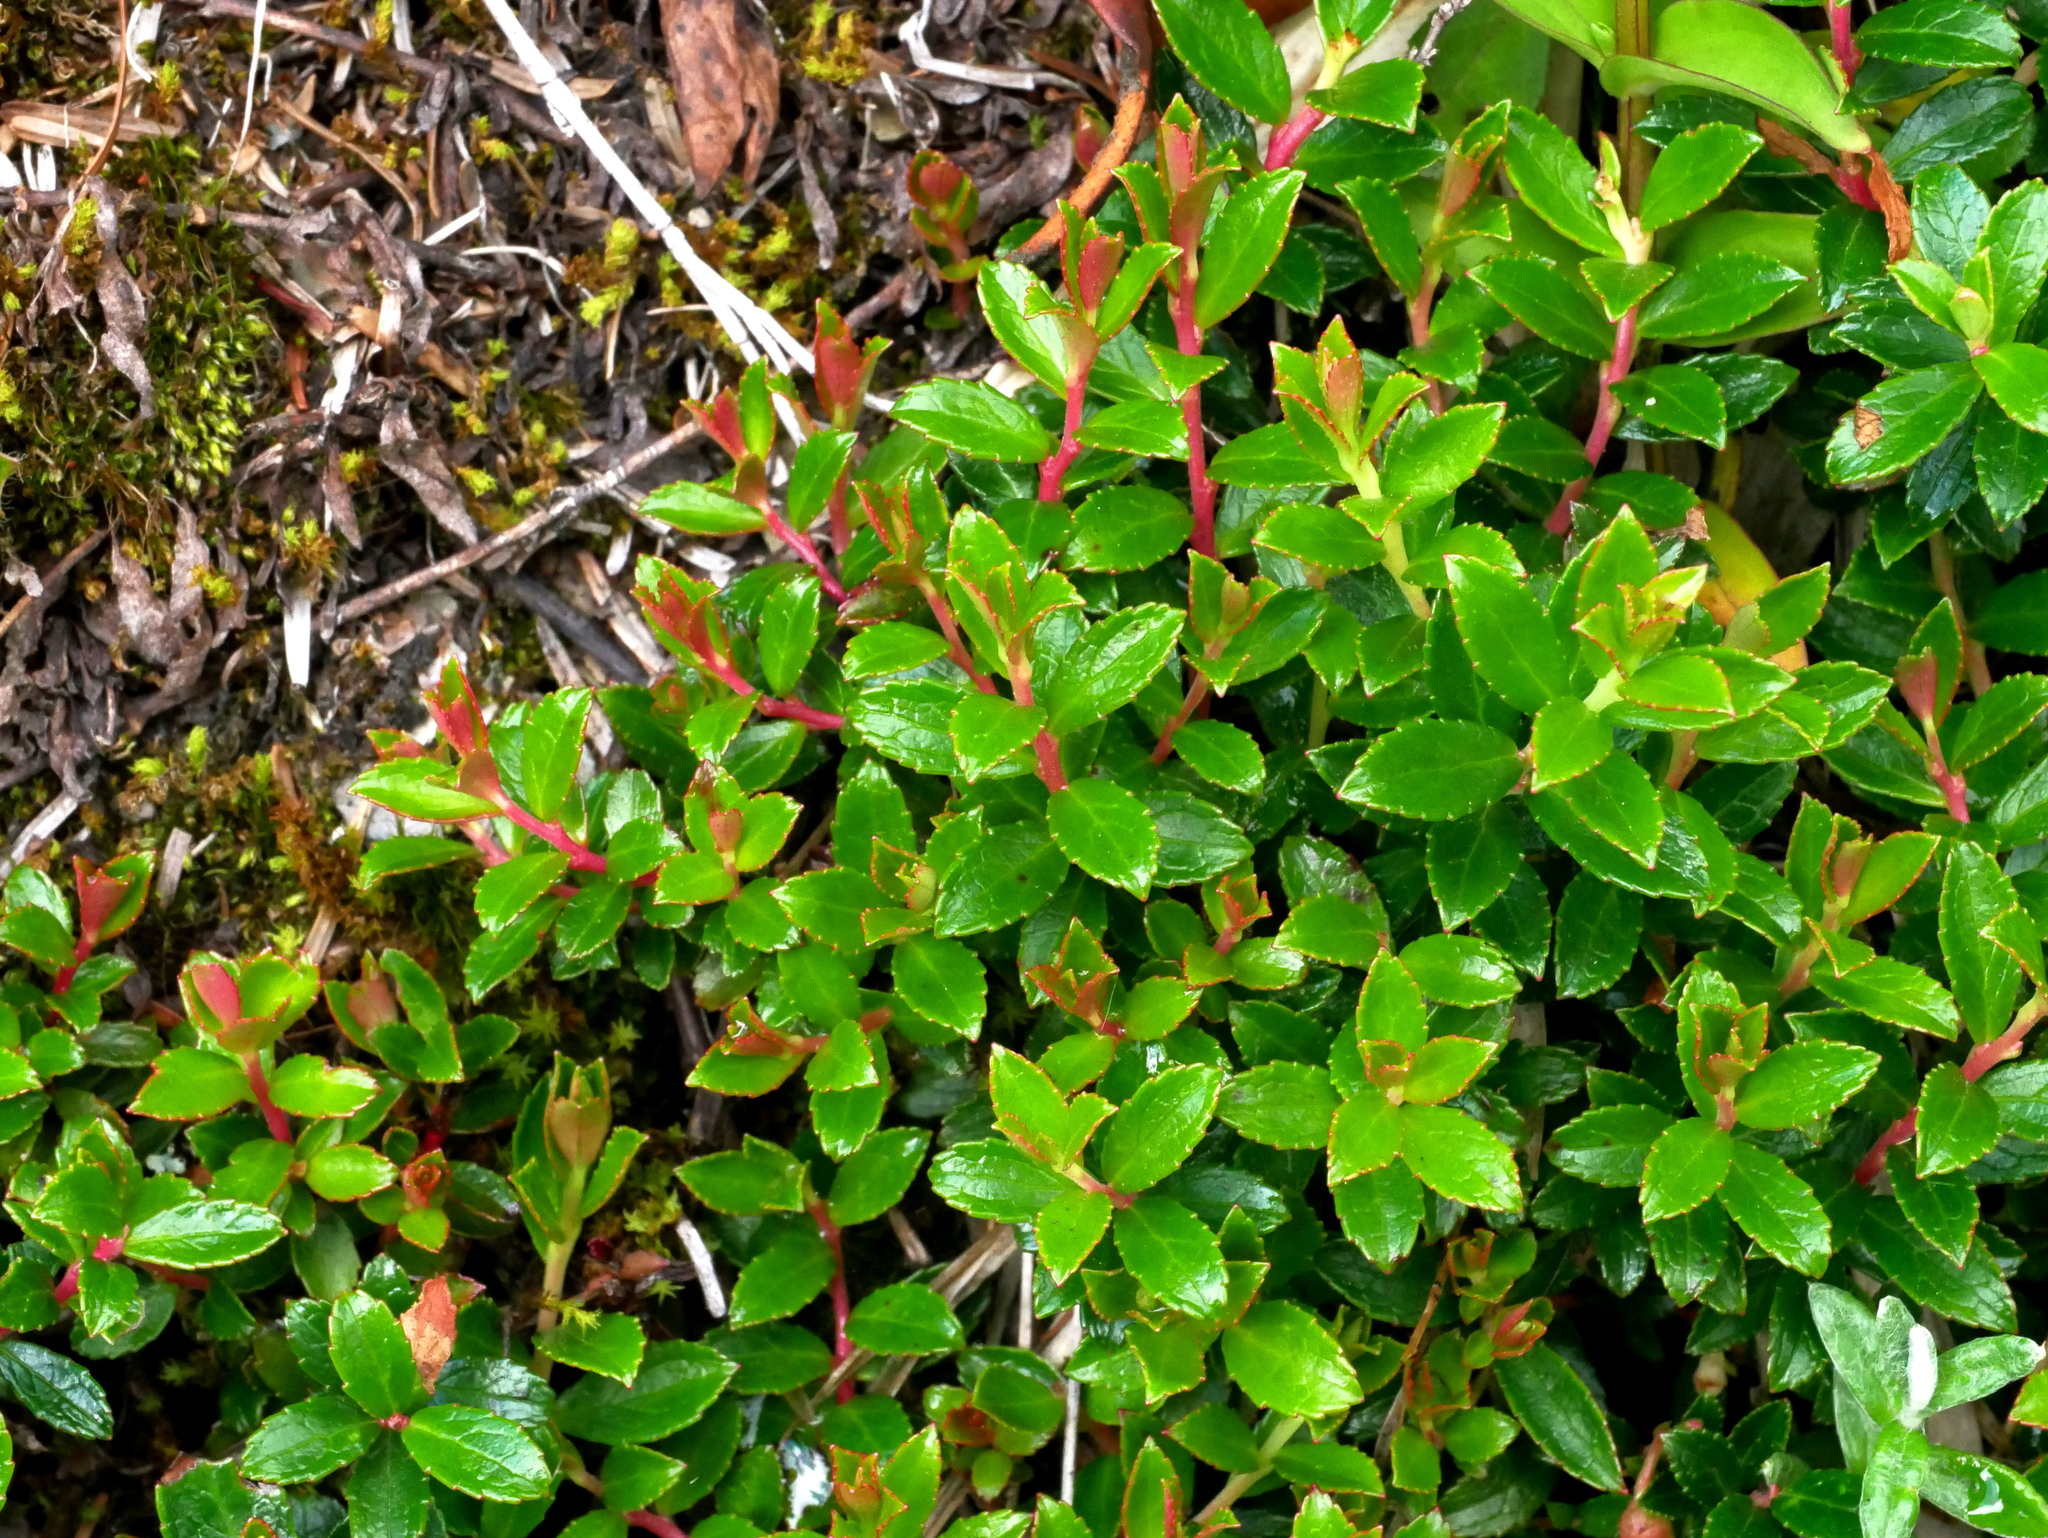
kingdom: Plantae
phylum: Tracheophyta
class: Magnoliopsida
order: Ericales
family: Ericaceae
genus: Gaultheria
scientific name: Gaultheria borneensis
